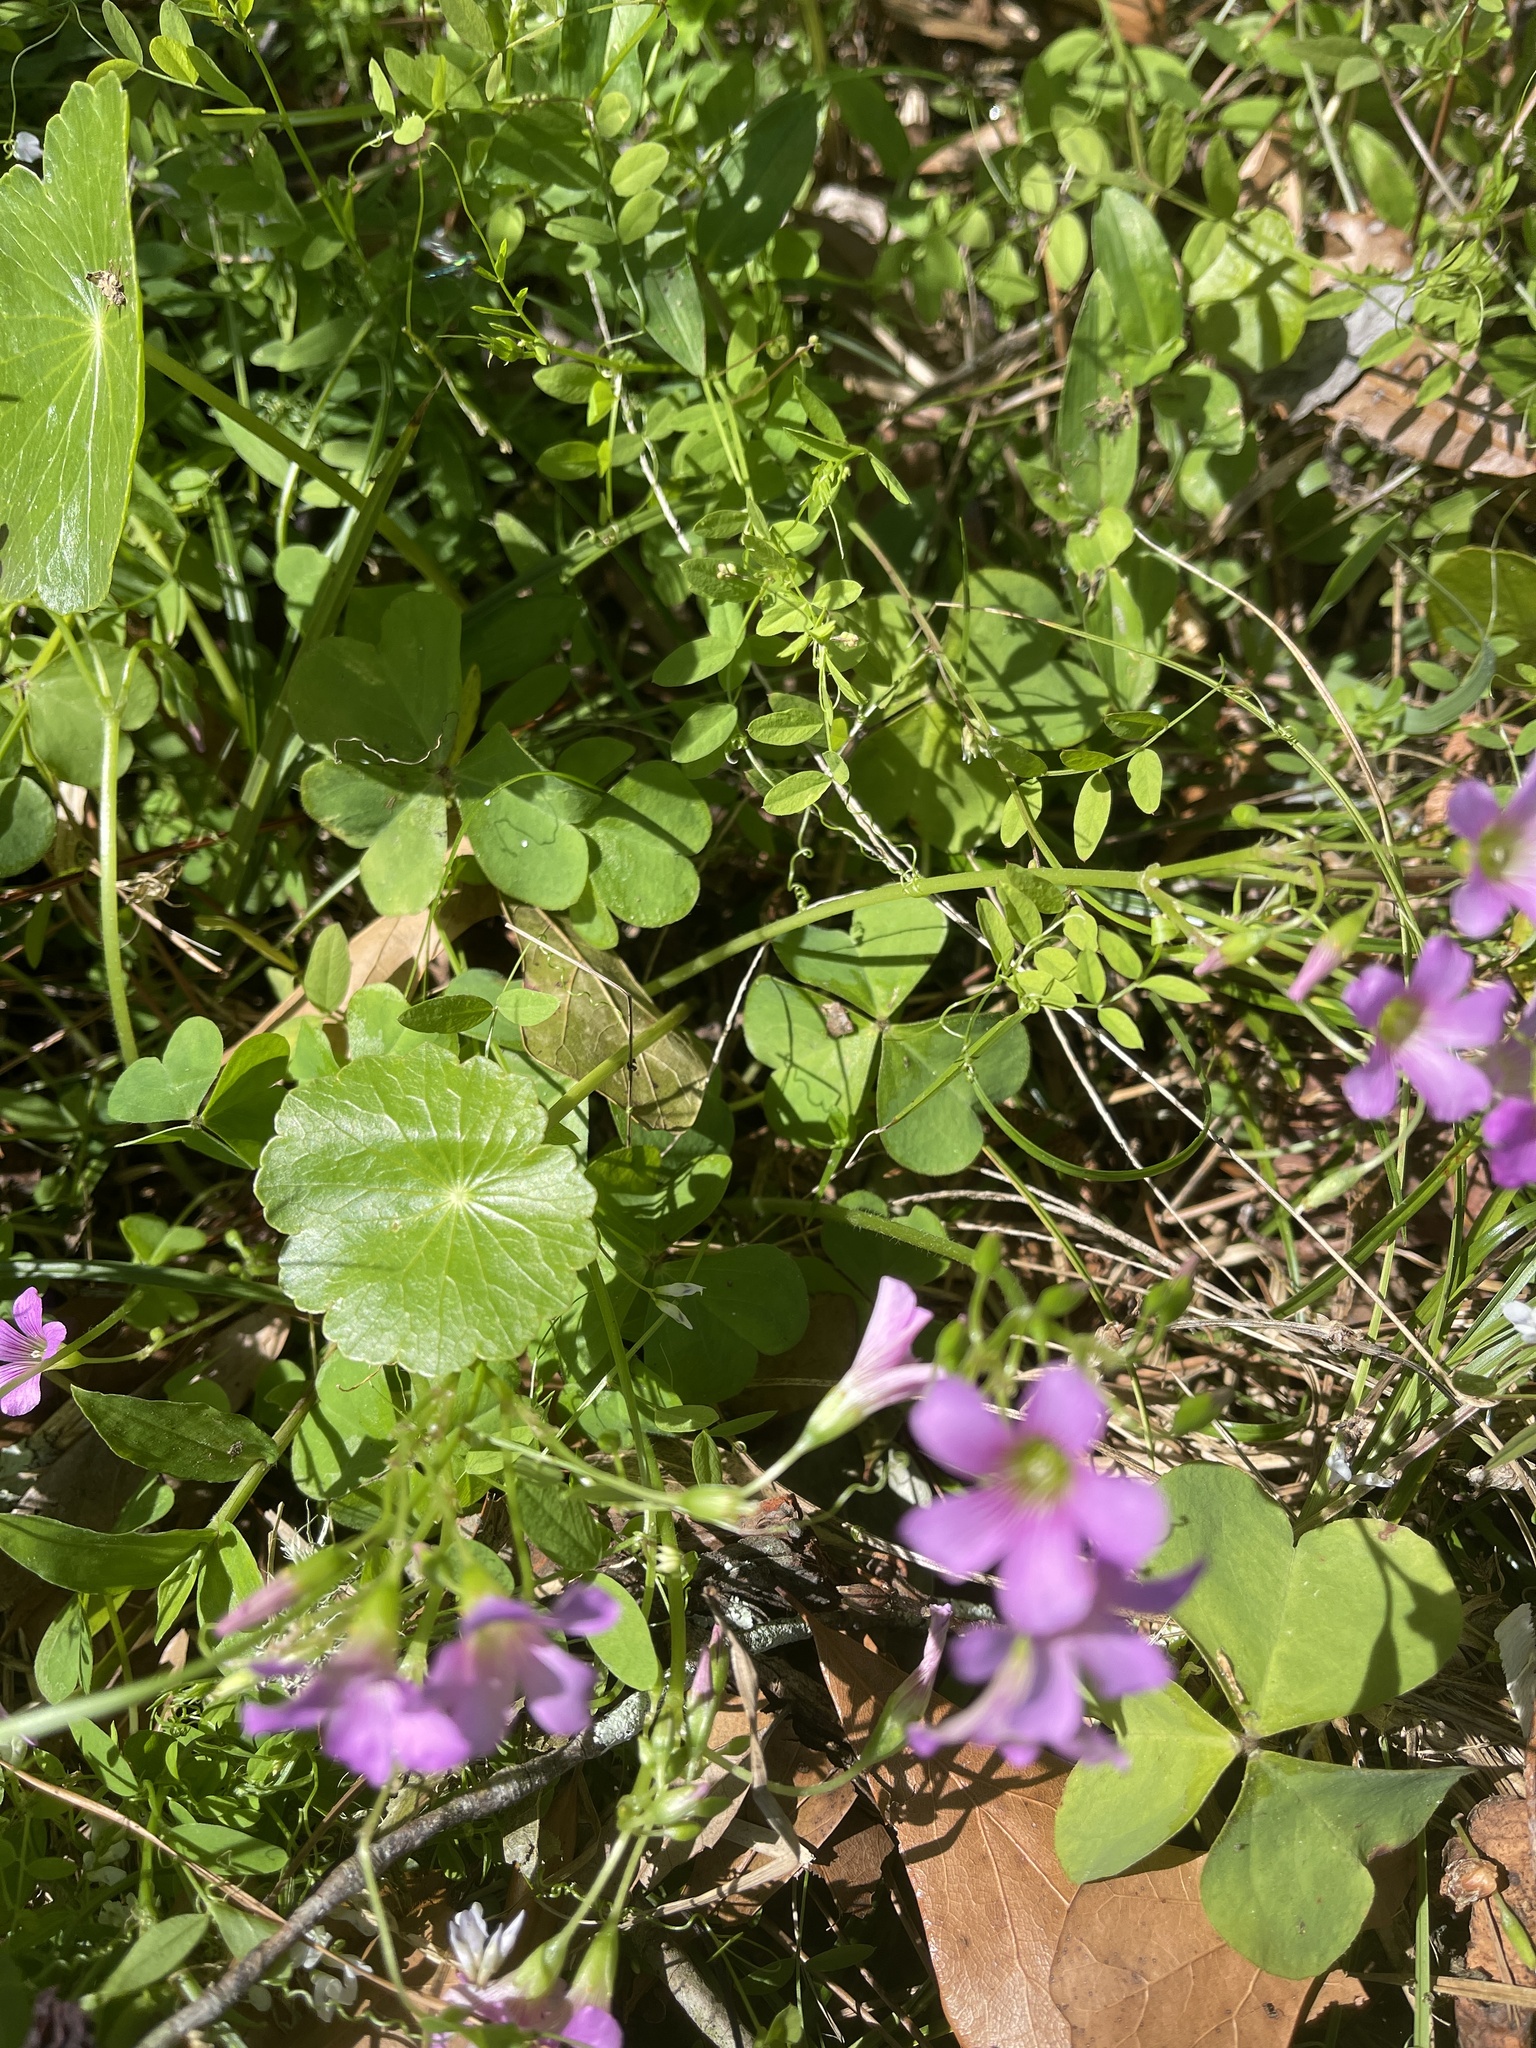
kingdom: Plantae
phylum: Tracheophyta
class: Magnoliopsida
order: Oxalidales
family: Oxalidaceae
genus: Oxalis
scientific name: Oxalis debilis
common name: Large-flowered pink-sorrel
